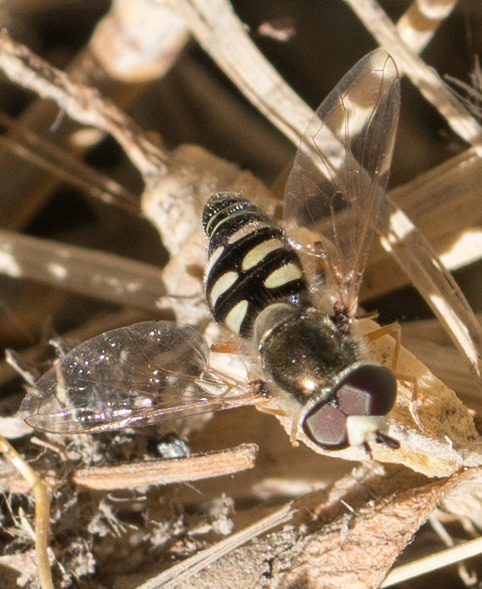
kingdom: Animalia
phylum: Arthropoda
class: Insecta
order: Diptera
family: Syrphidae
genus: Eupeodes
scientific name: Eupeodes volucris
